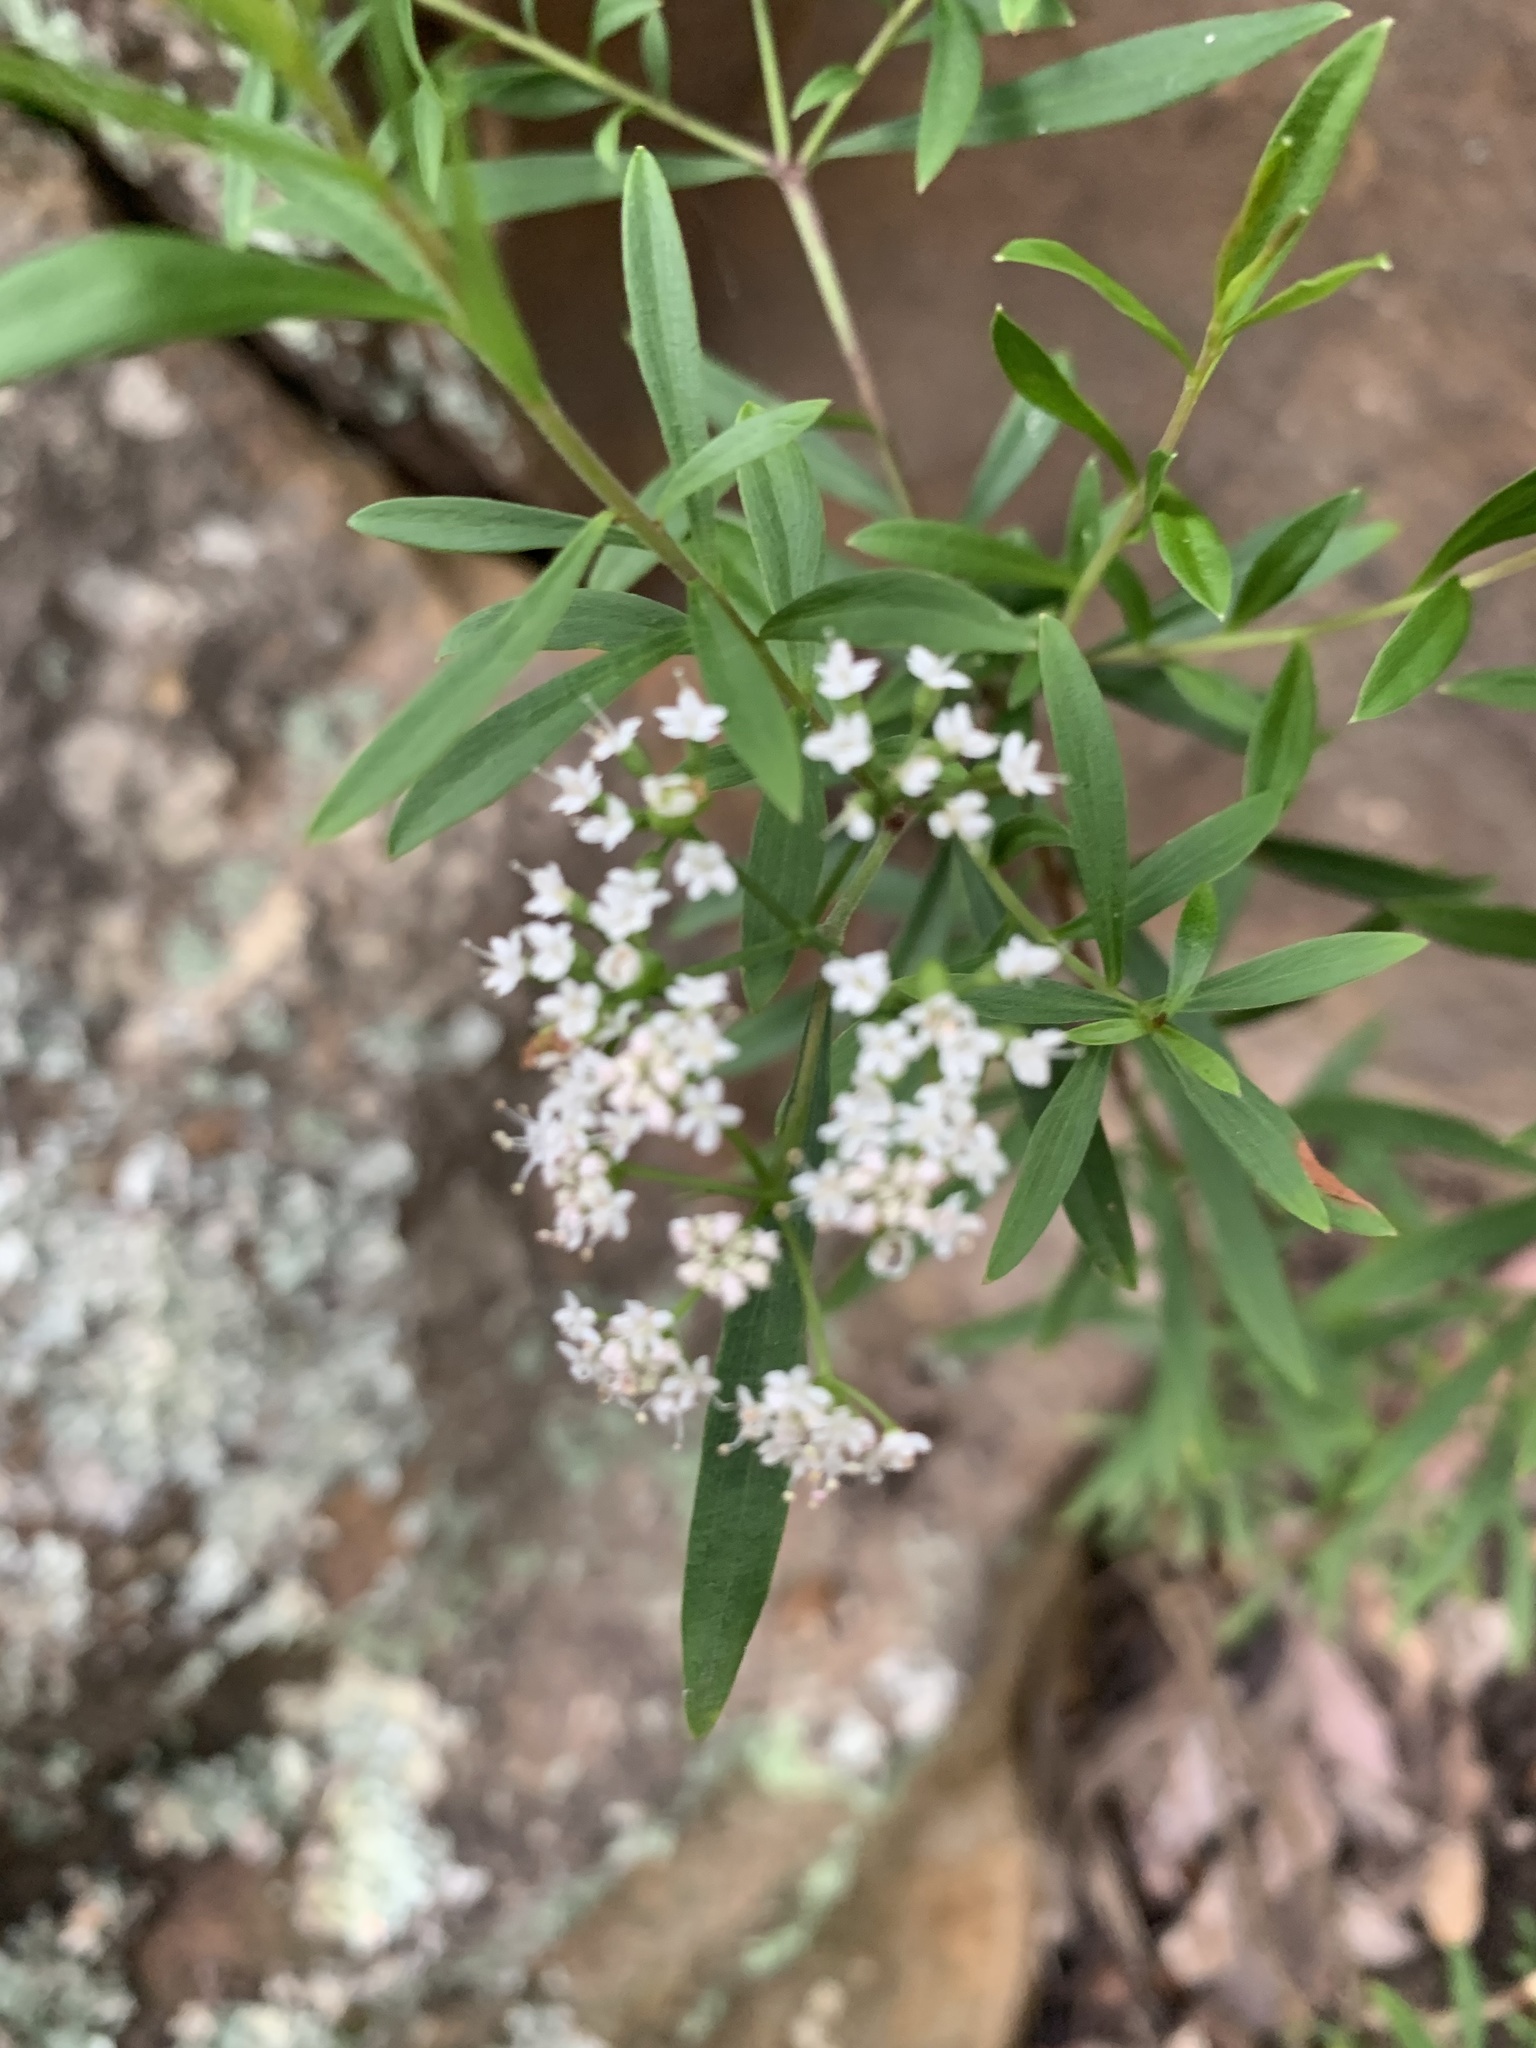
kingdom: Plantae
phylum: Tracheophyta
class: Magnoliopsida
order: Apiales
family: Apiaceae
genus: Platysace
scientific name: Platysace lanceolata
